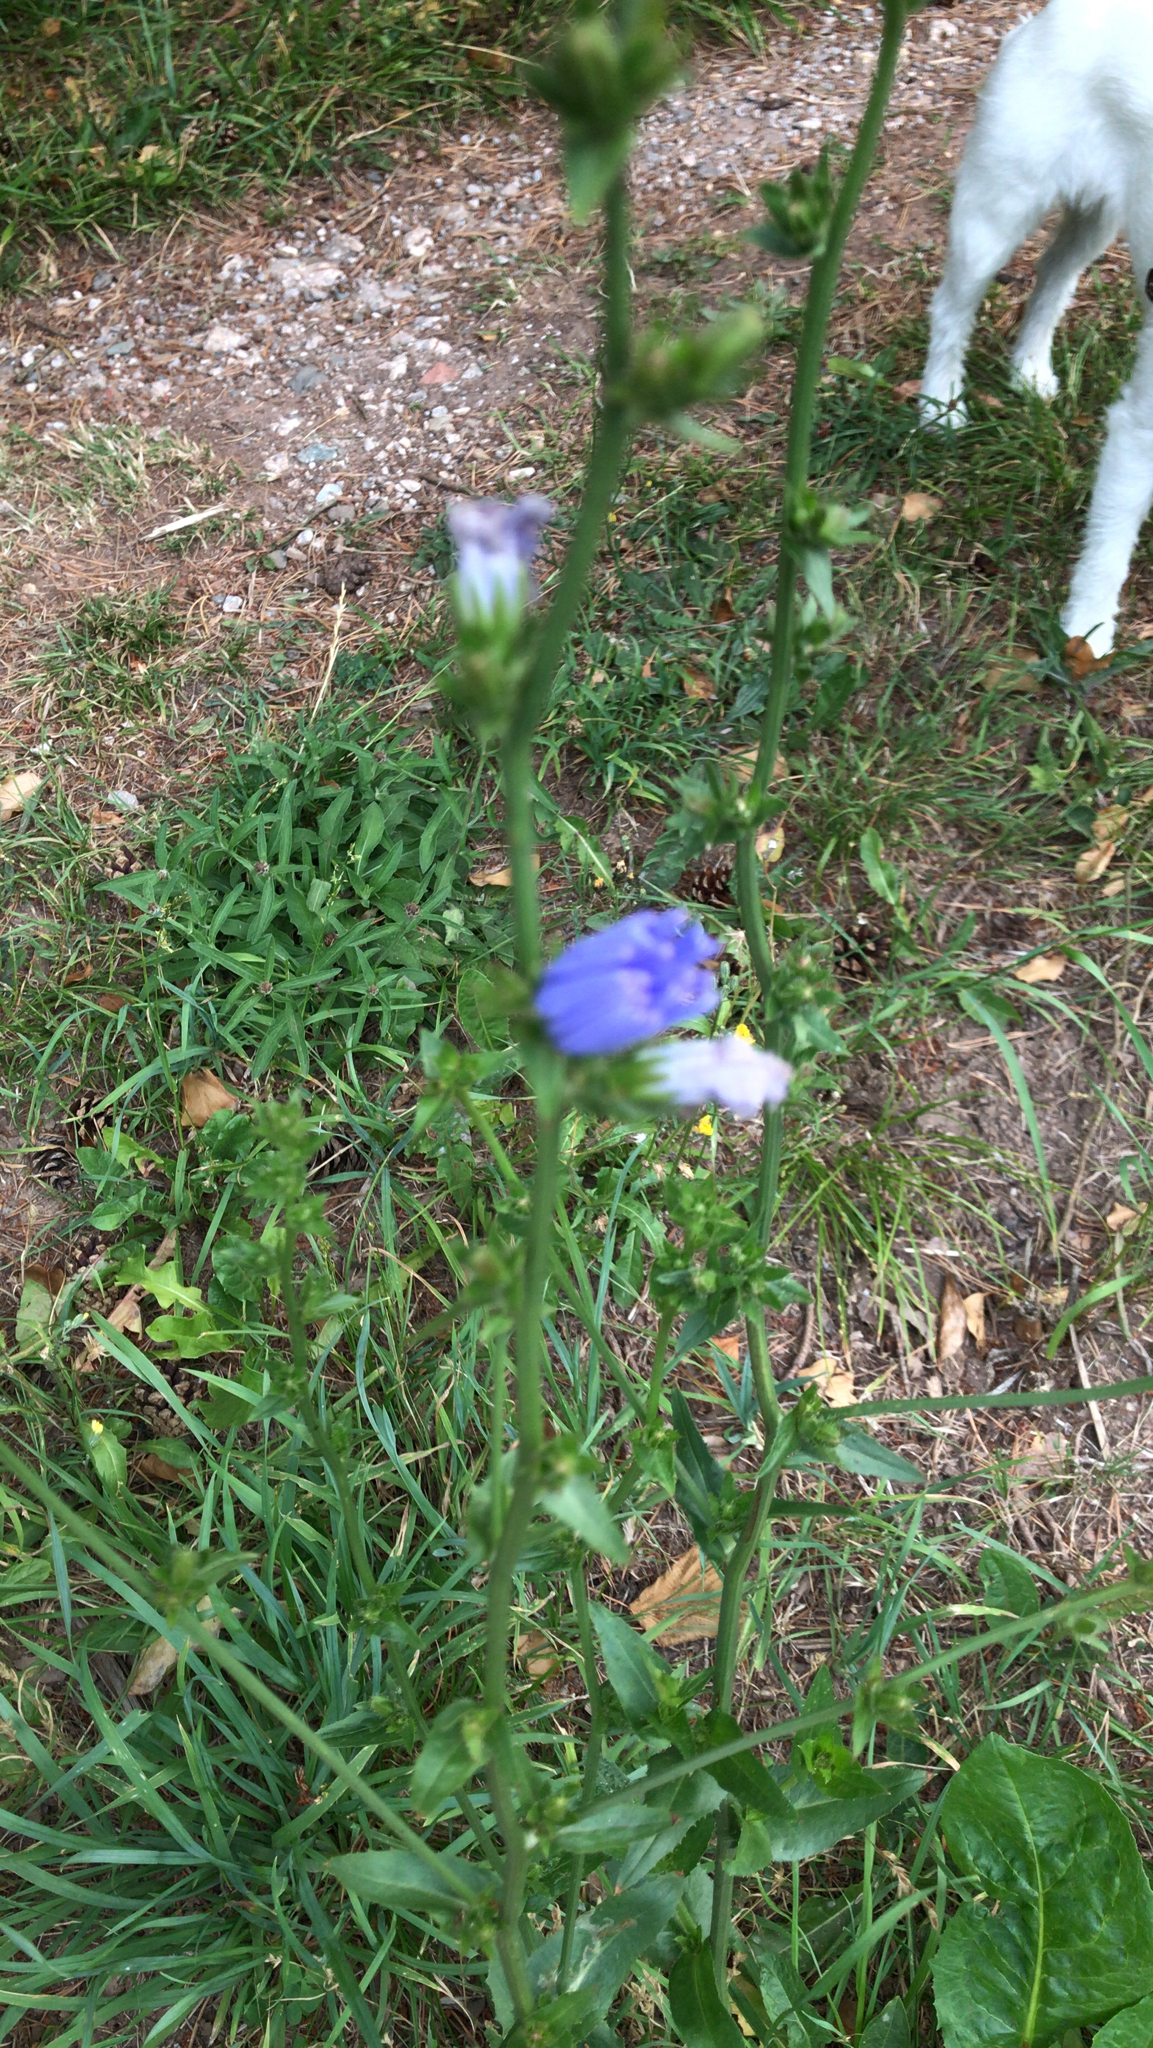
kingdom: Plantae
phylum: Tracheophyta
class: Magnoliopsida
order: Asterales
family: Asteraceae
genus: Cichorium
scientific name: Cichorium intybus
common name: Chicory
